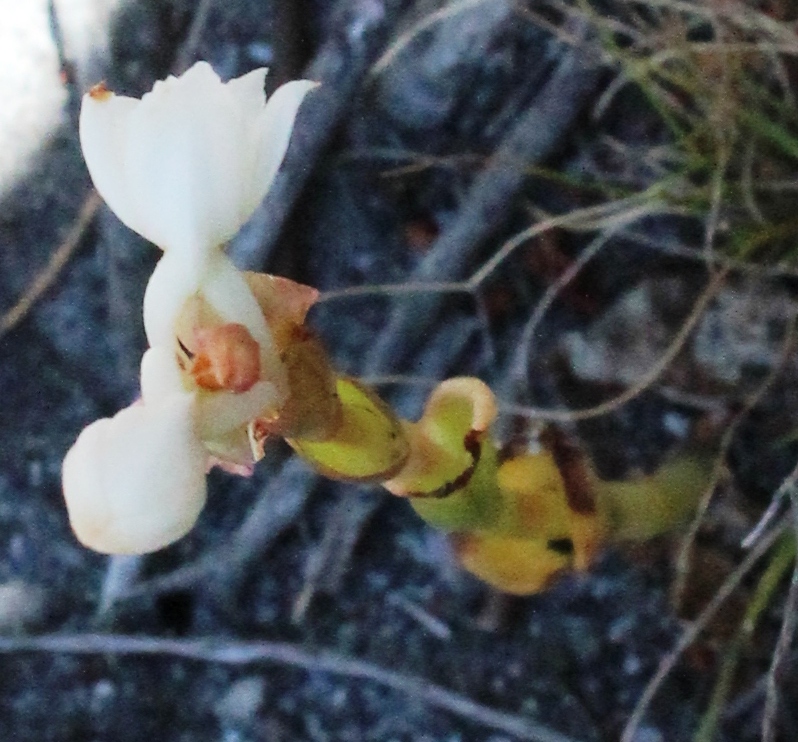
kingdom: Plantae
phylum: Tracheophyta
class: Liliopsida
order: Asparagales
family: Orchidaceae
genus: Satyrium
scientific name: Satyrium acuminatum
